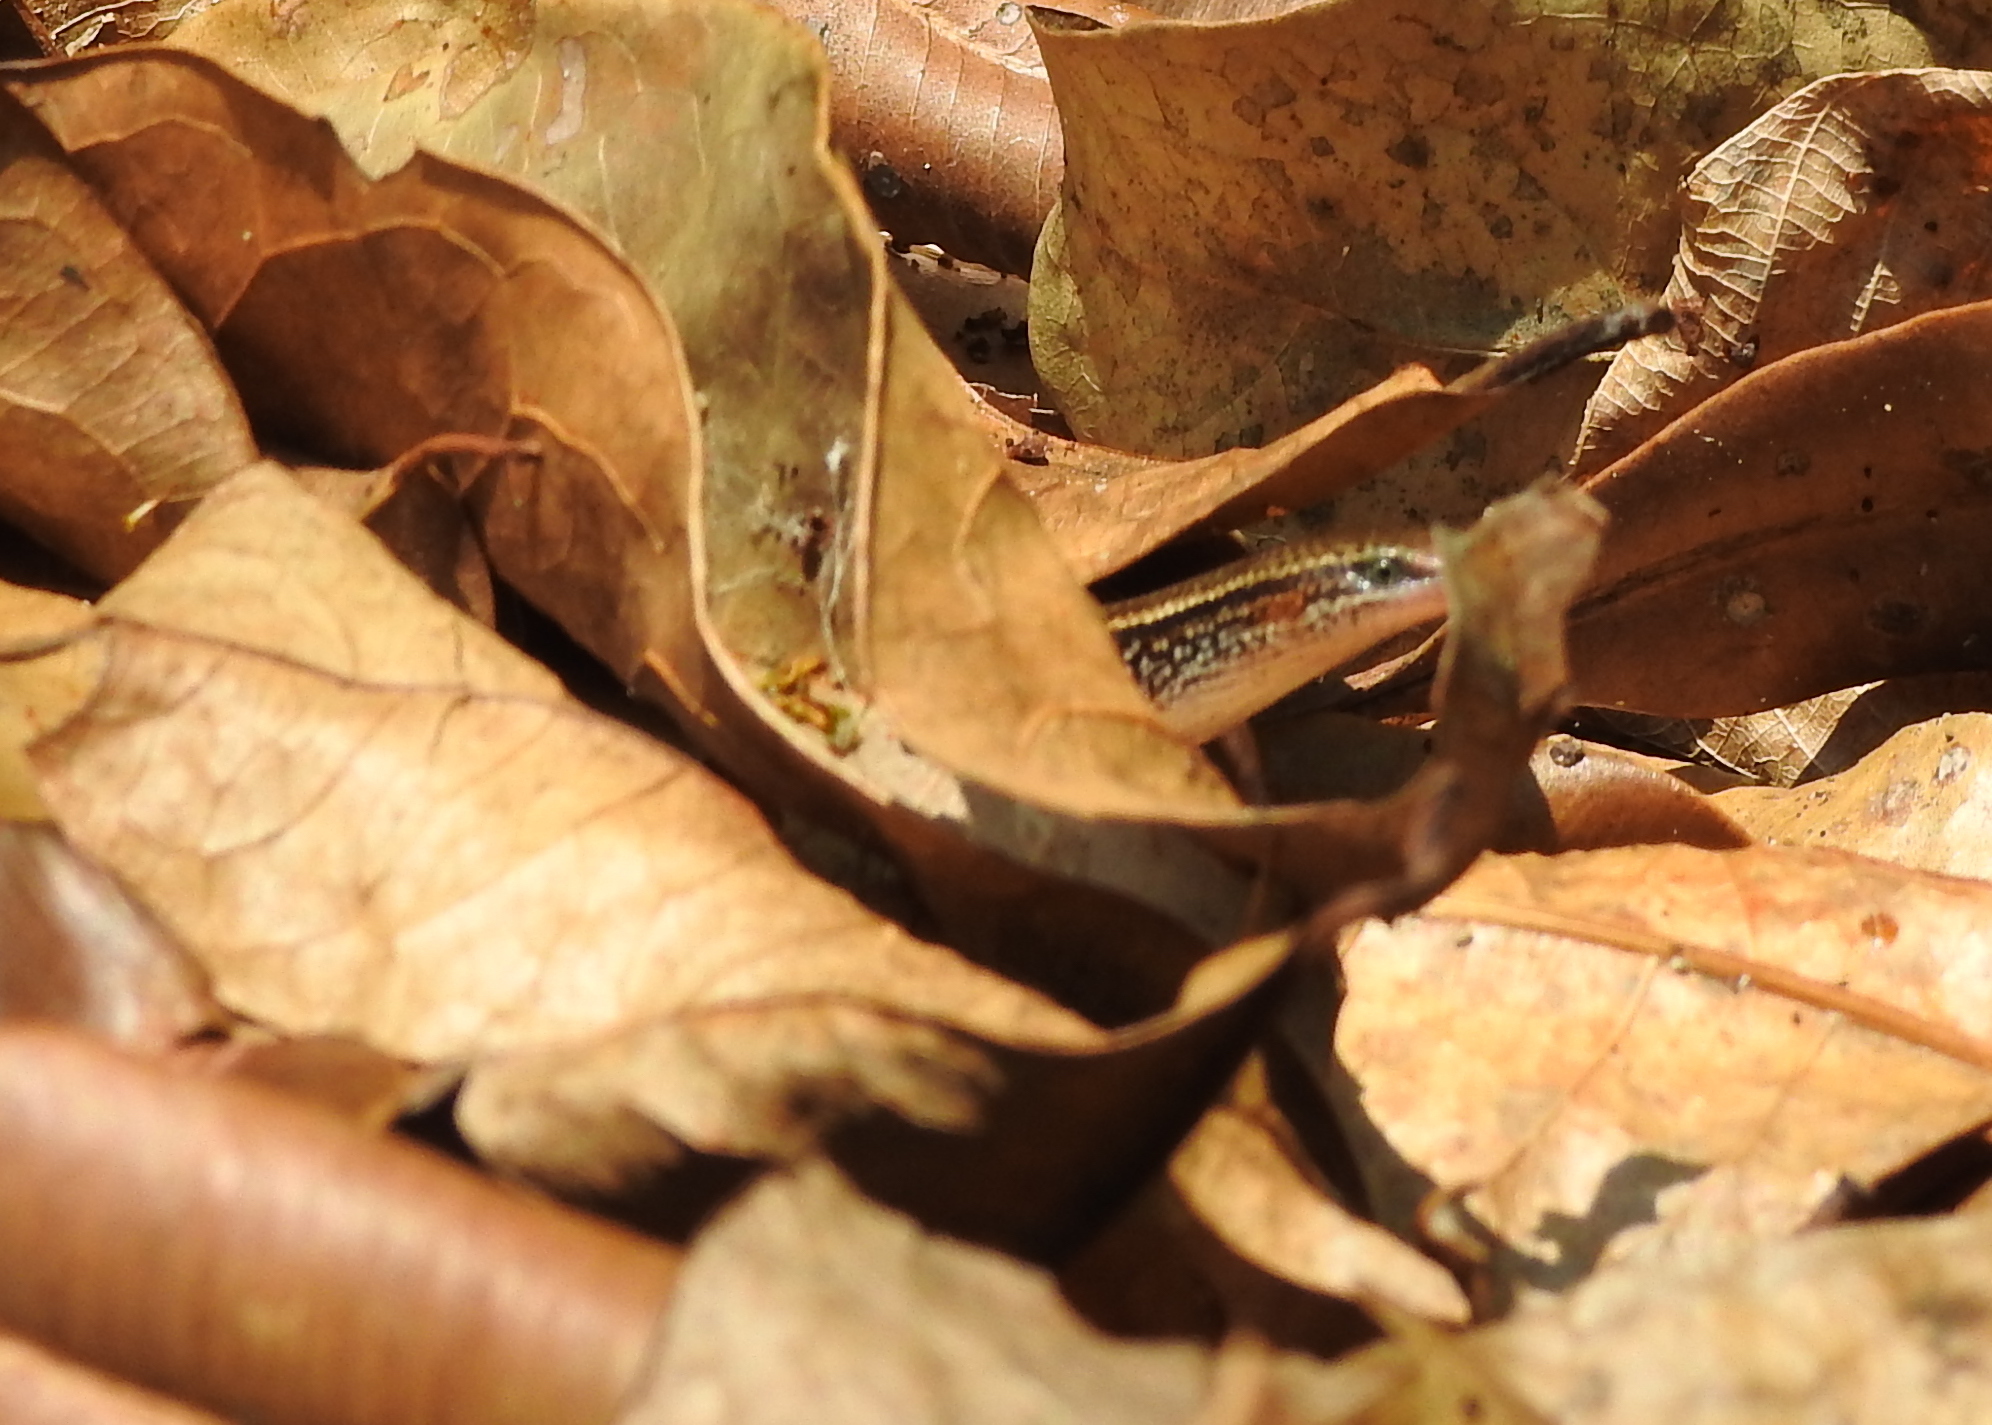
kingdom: Animalia
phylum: Chordata
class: Squamata
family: Scincidae
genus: Subdoluseps
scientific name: Subdoluseps bowringii
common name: Christmas island grass-skink
